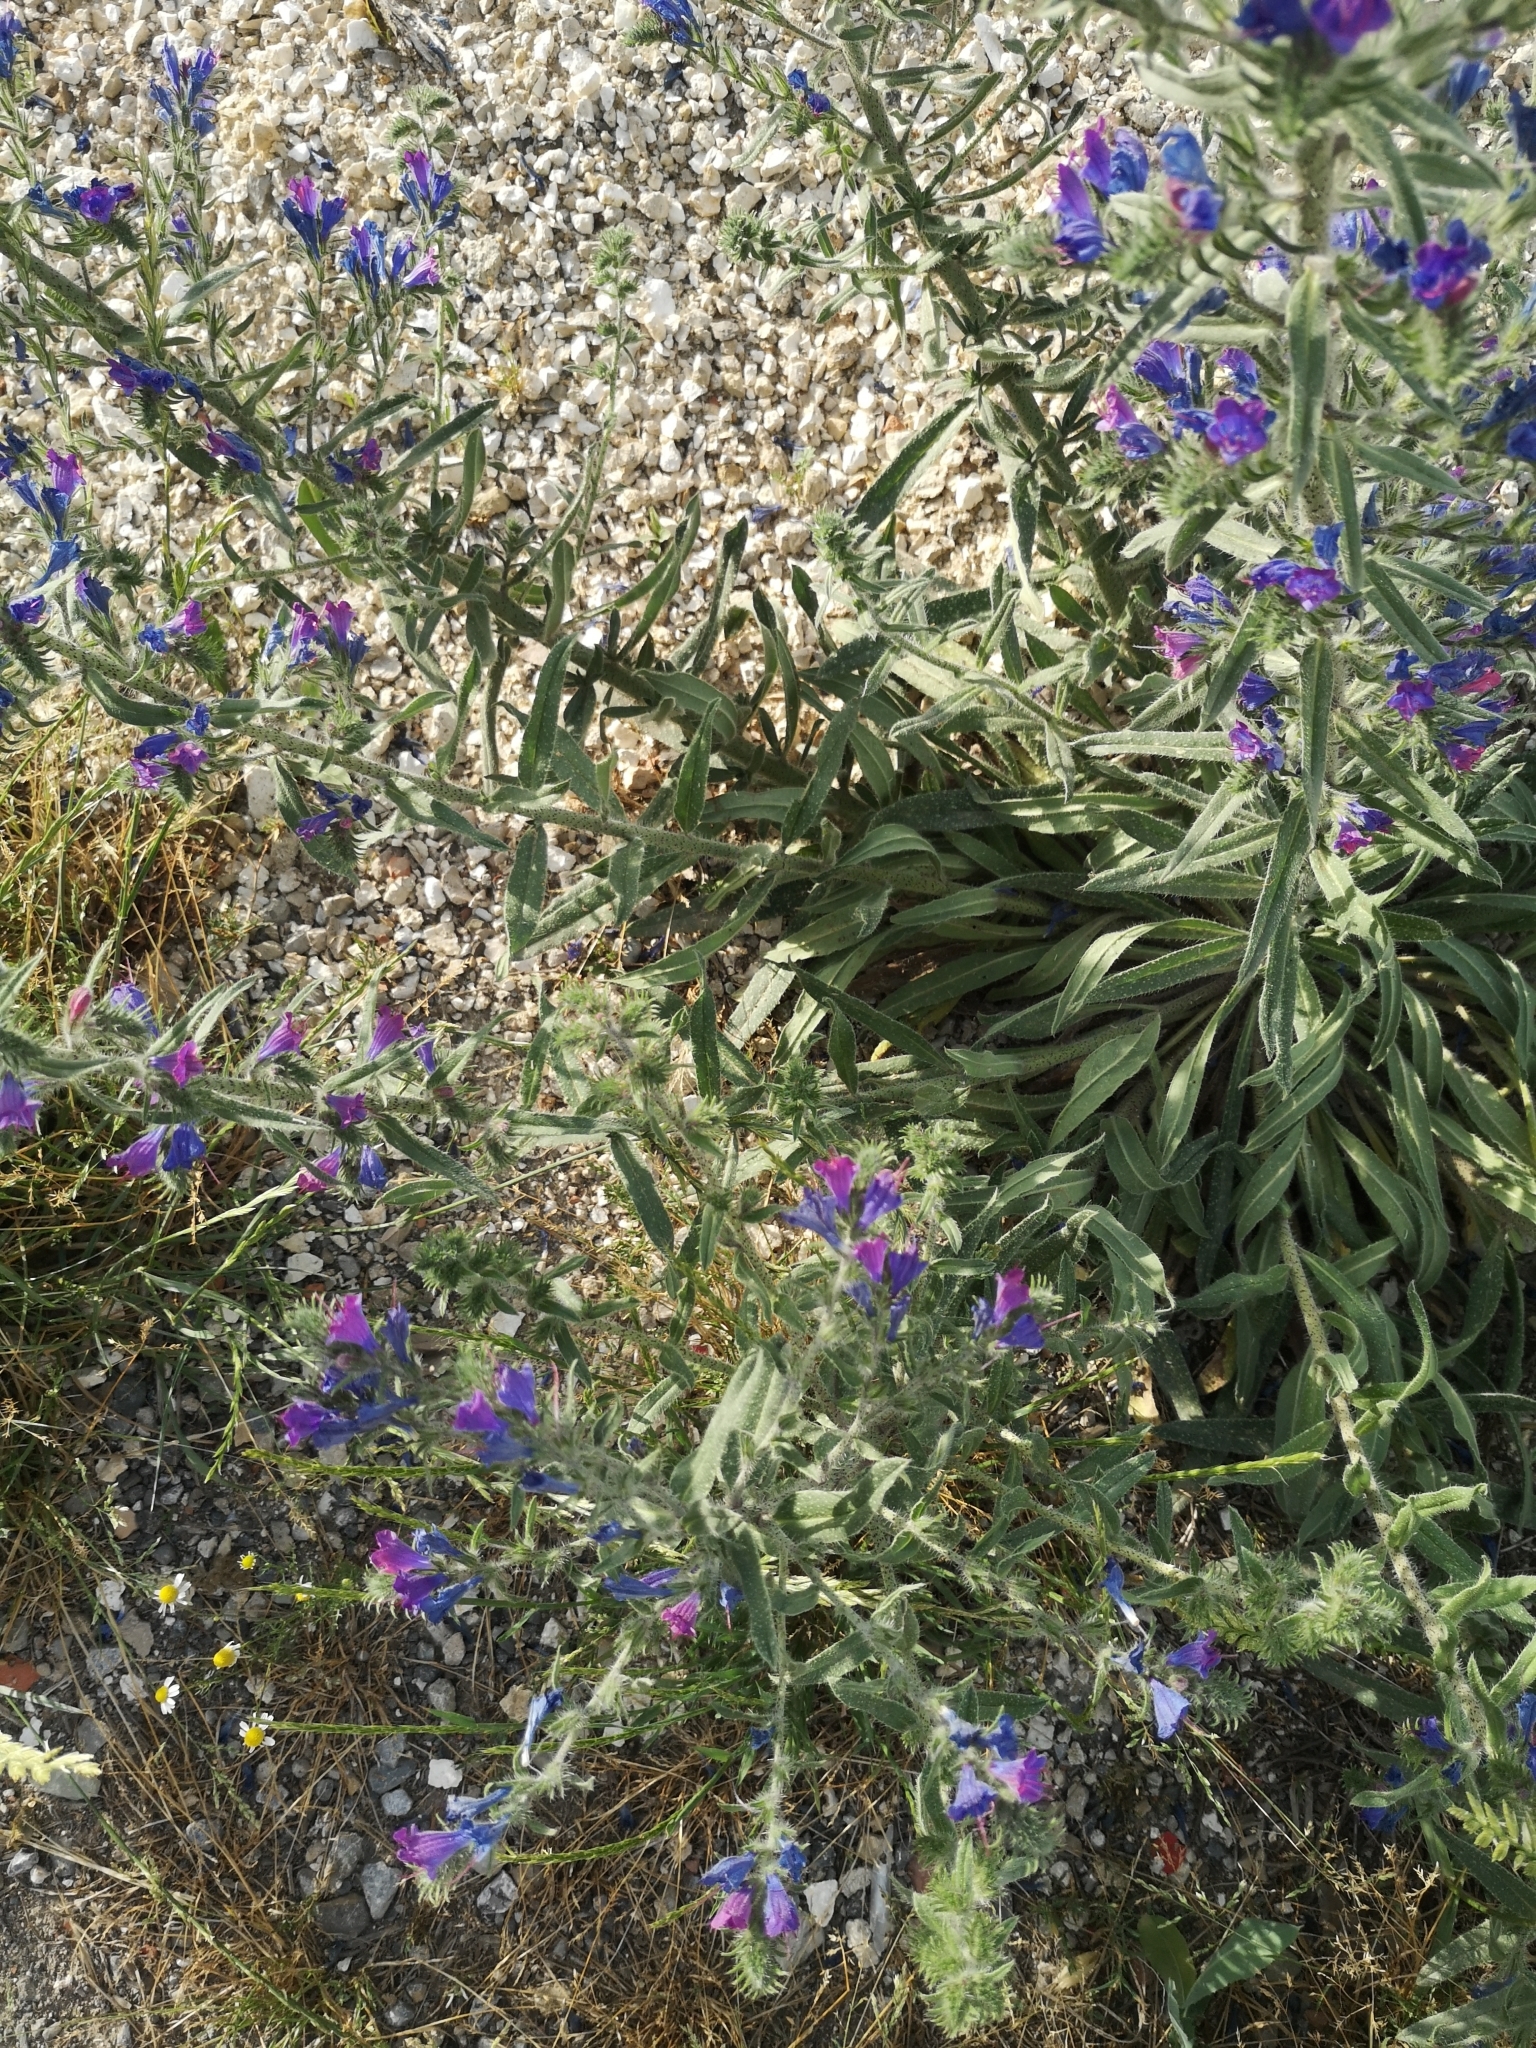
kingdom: Plantae
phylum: Tracheophyta
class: Magnoliopsida
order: Boraginales
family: Boraginaceae
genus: Echium
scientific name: Echium vulgare
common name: Common viper's bugloss
